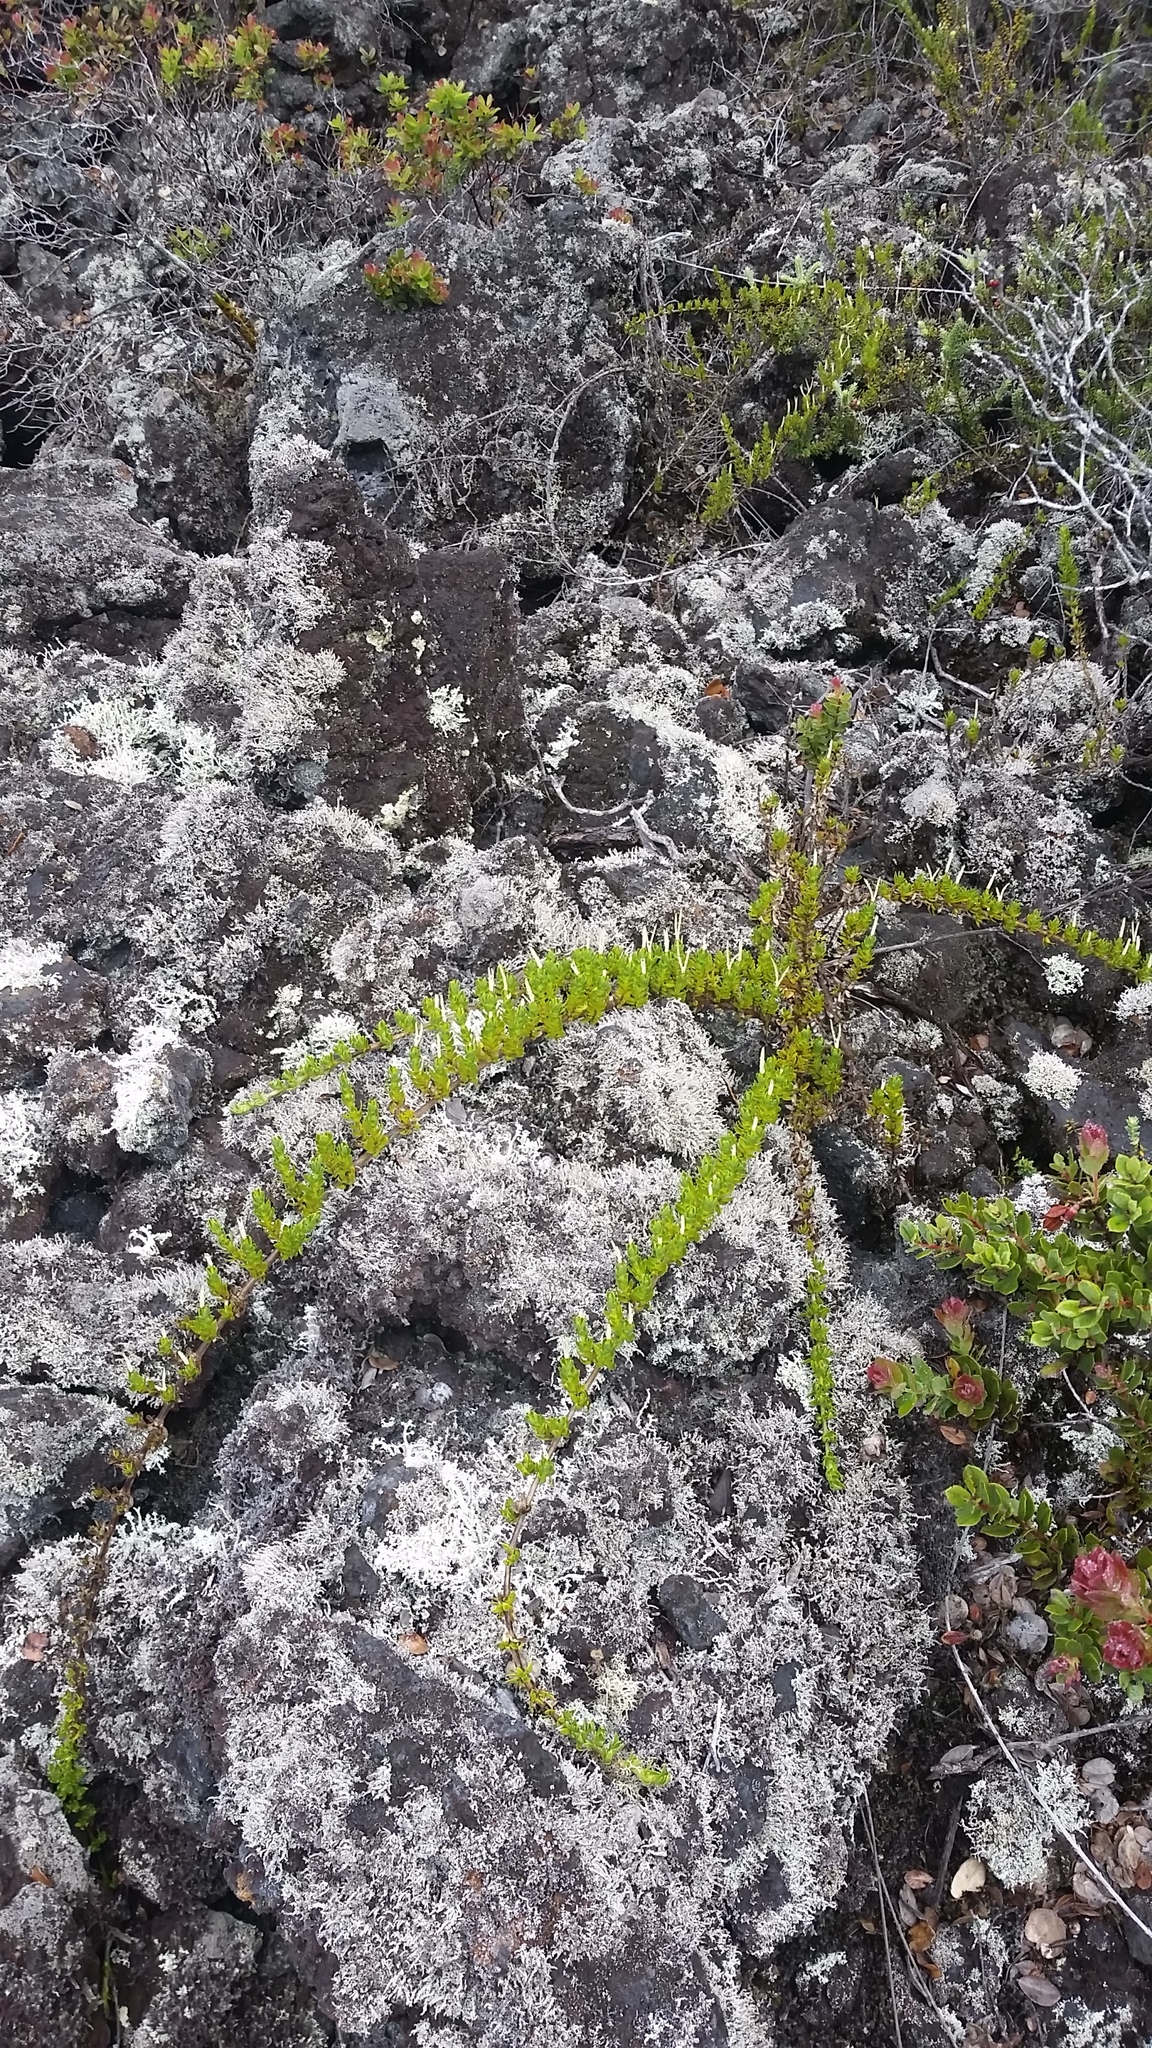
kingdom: Plantae
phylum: Tracheophyta
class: Magnoliopsida
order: Gentianales
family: Rubiaceae
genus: Coprosma
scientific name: Coprosma ernodeoides
